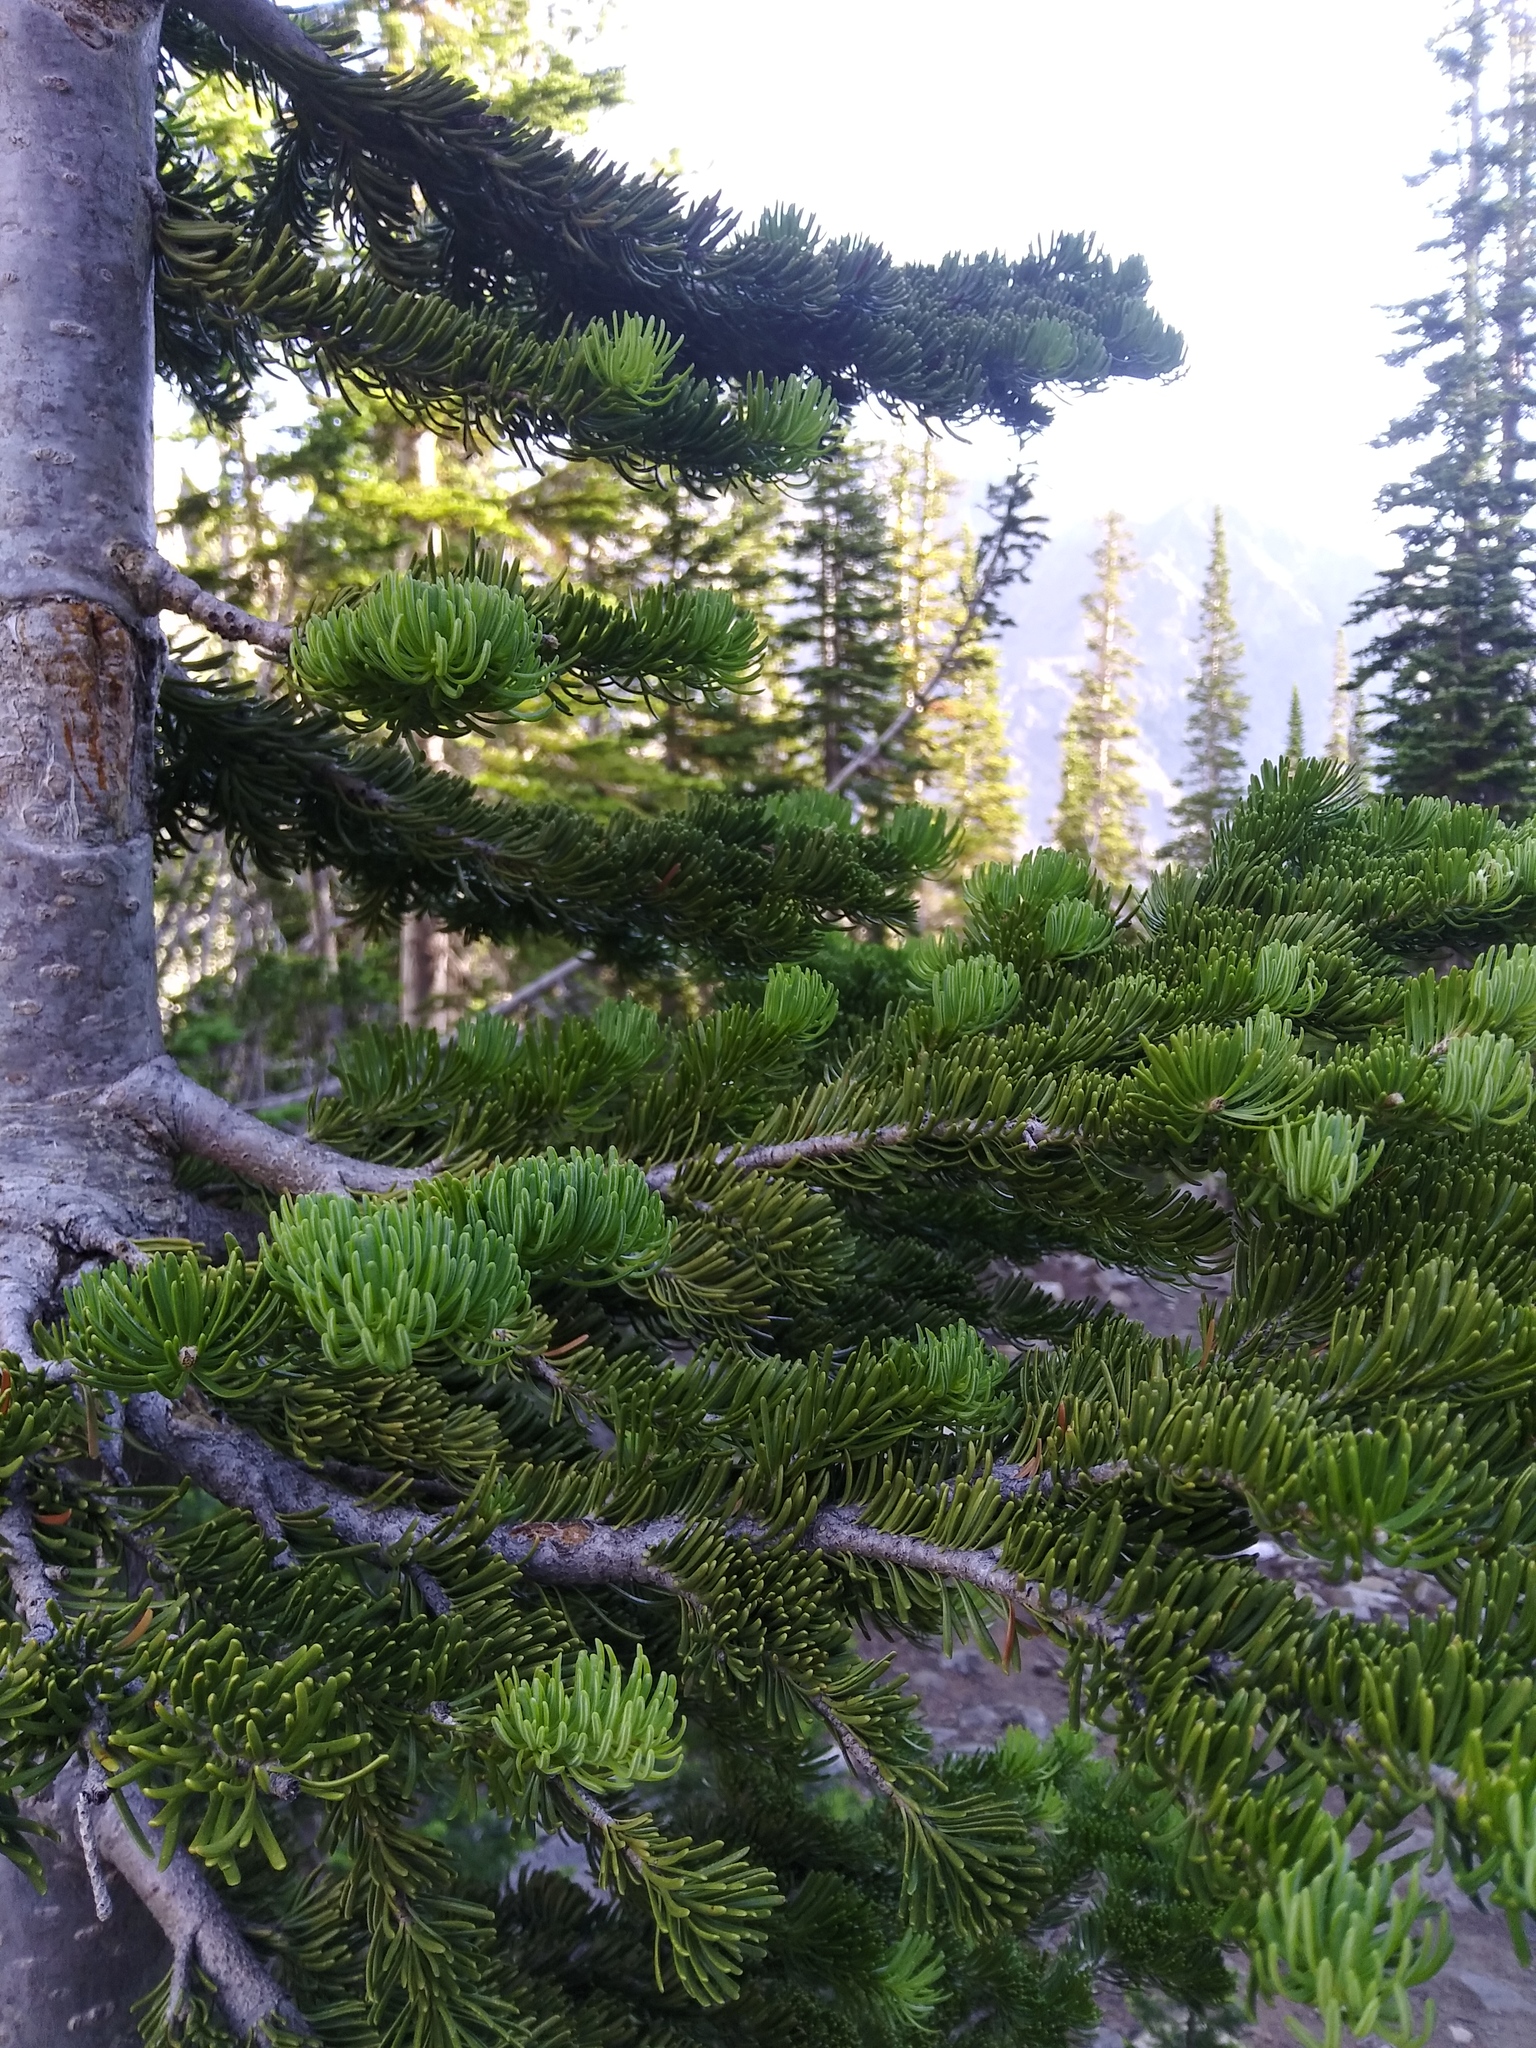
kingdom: Plantae
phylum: Tracheophyta
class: Pinopsida
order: Pinales
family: Pinaceae
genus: Abies
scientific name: Abies lasiocarpa
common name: Subalpine fir
